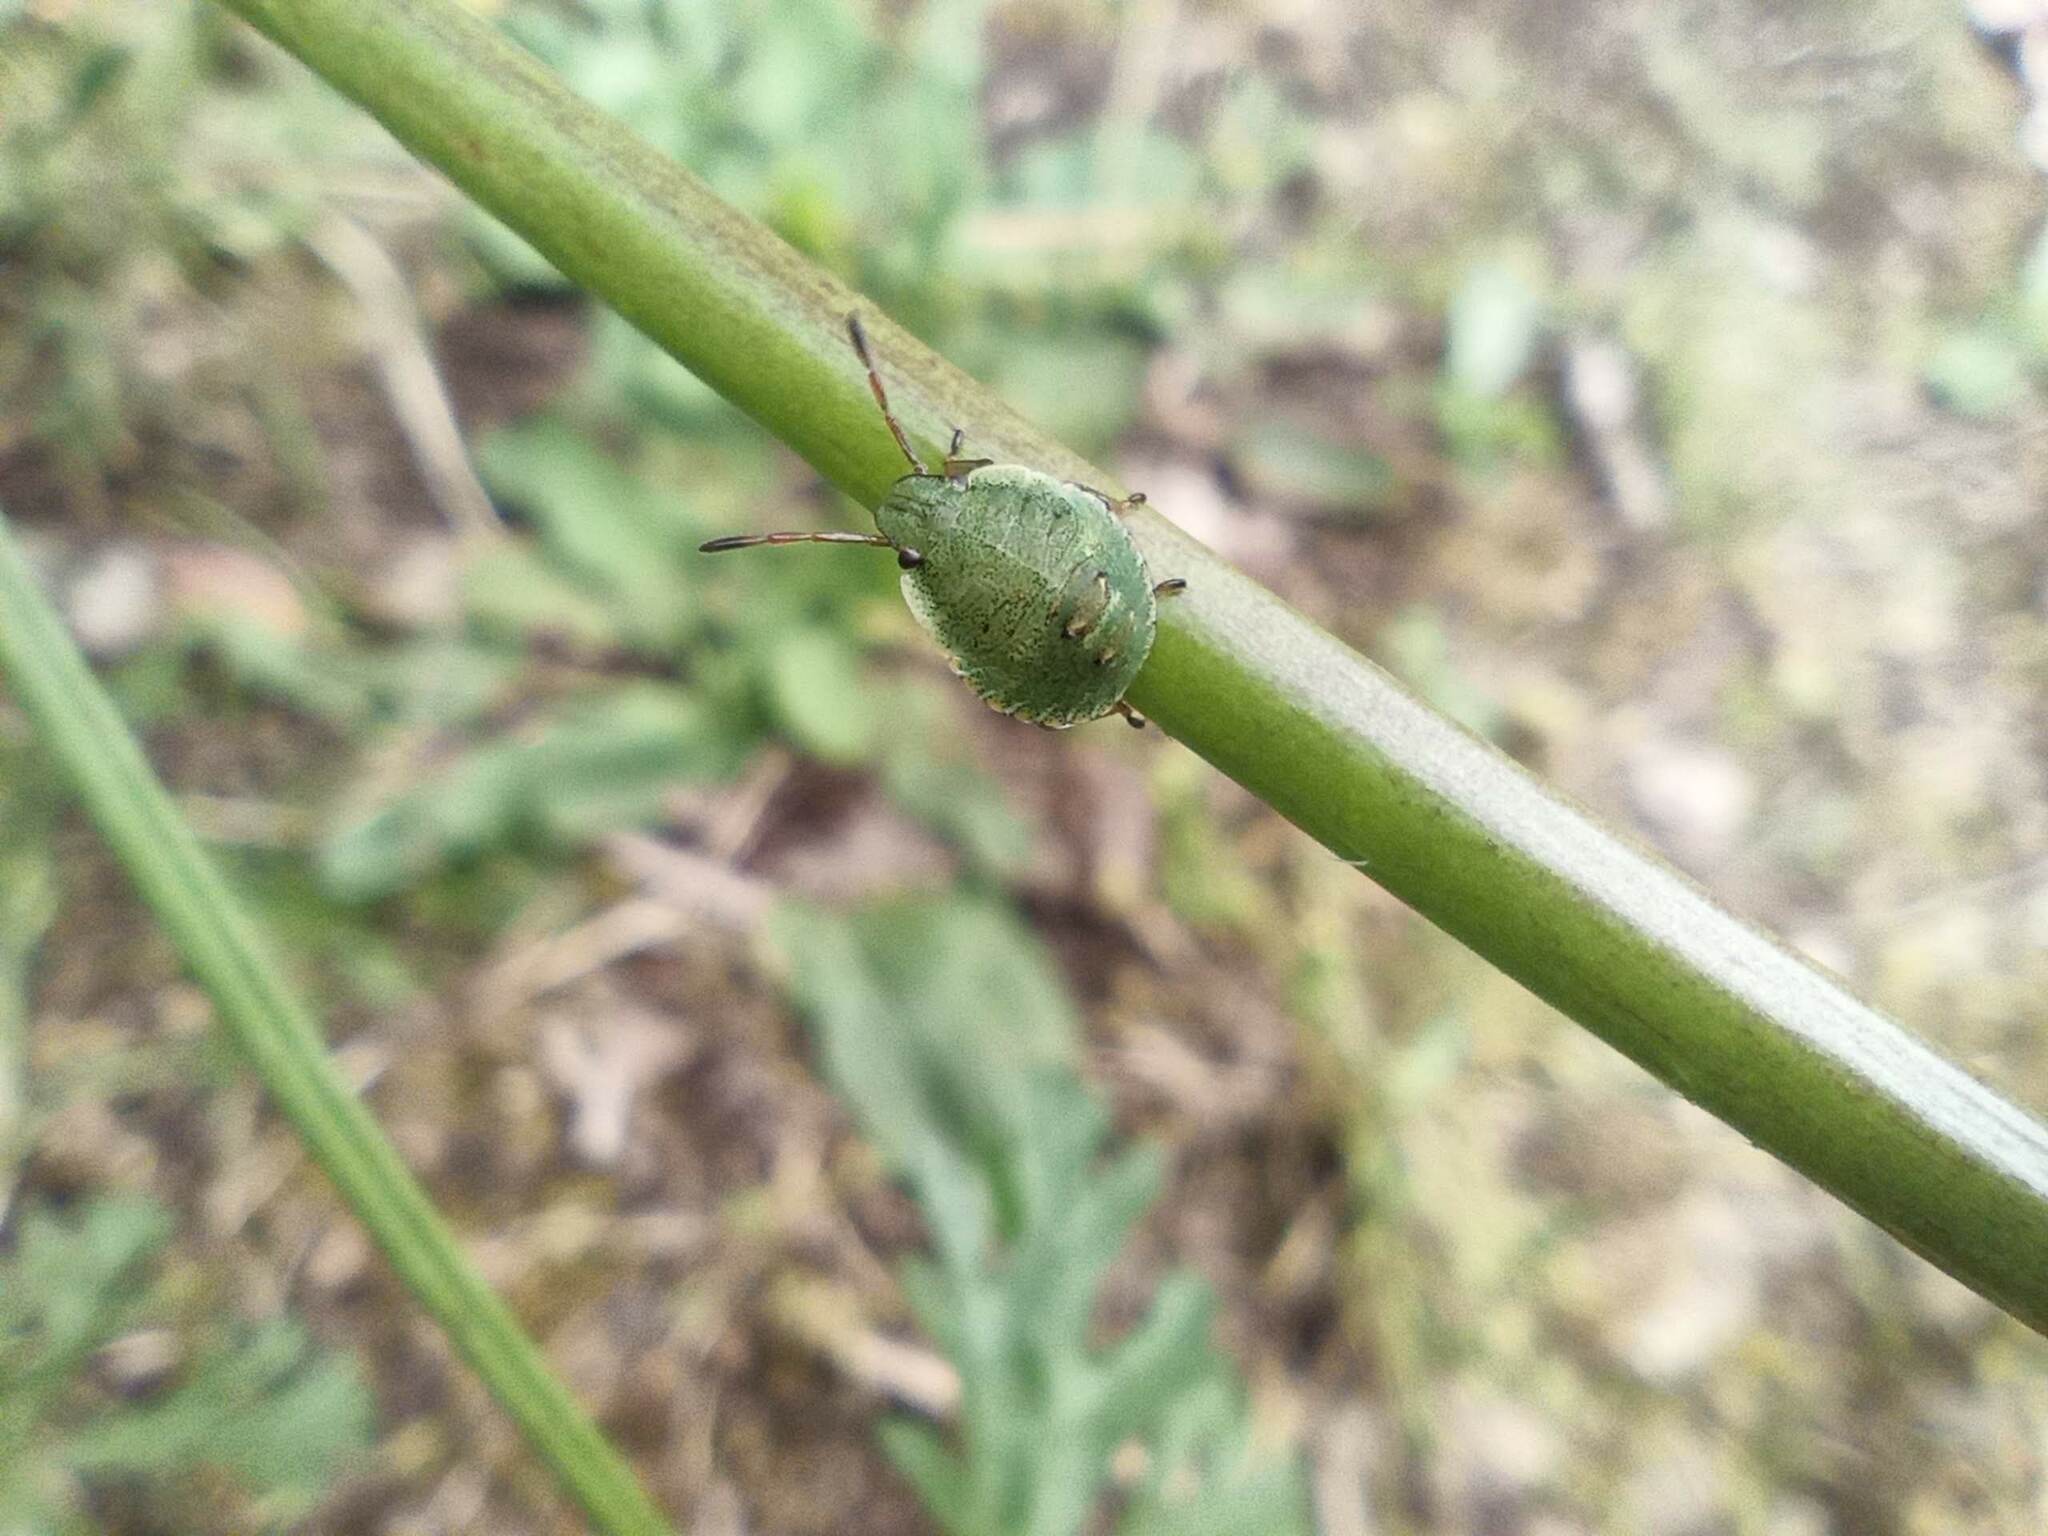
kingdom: Animalia
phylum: Arthropoda
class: Insecta
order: Hemiptera
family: Pentatomidae
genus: Palomena
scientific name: Palomena prasina
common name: Green shieldbug
